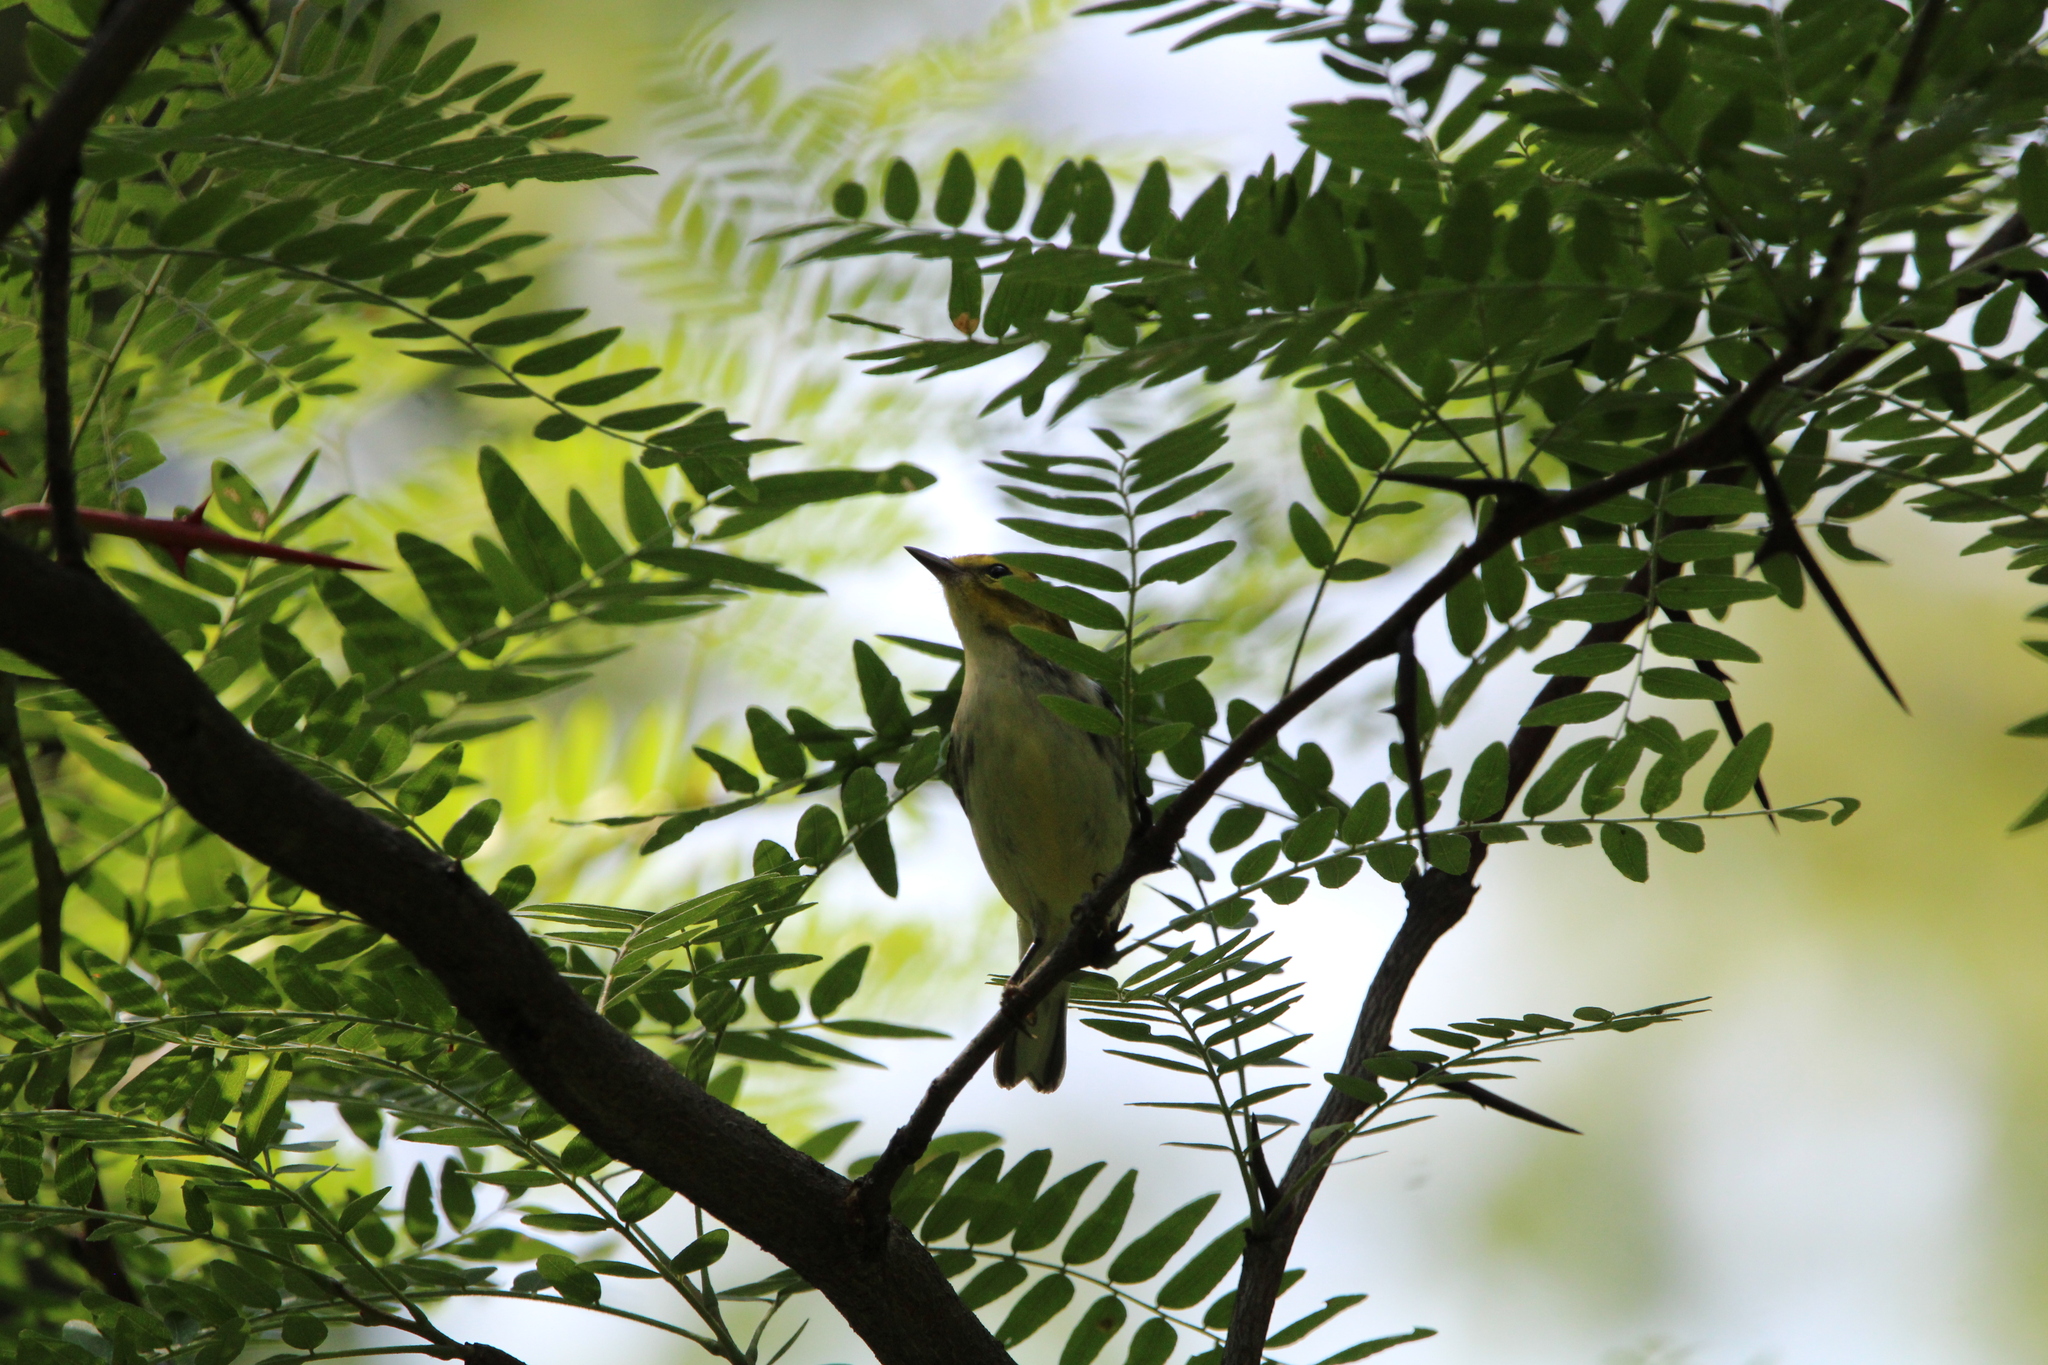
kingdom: Animalia
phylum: Chordata
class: Aves
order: Passeriformes
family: Parulidae
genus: Setophaga
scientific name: Setophaga virens
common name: Black-throated green warbler
